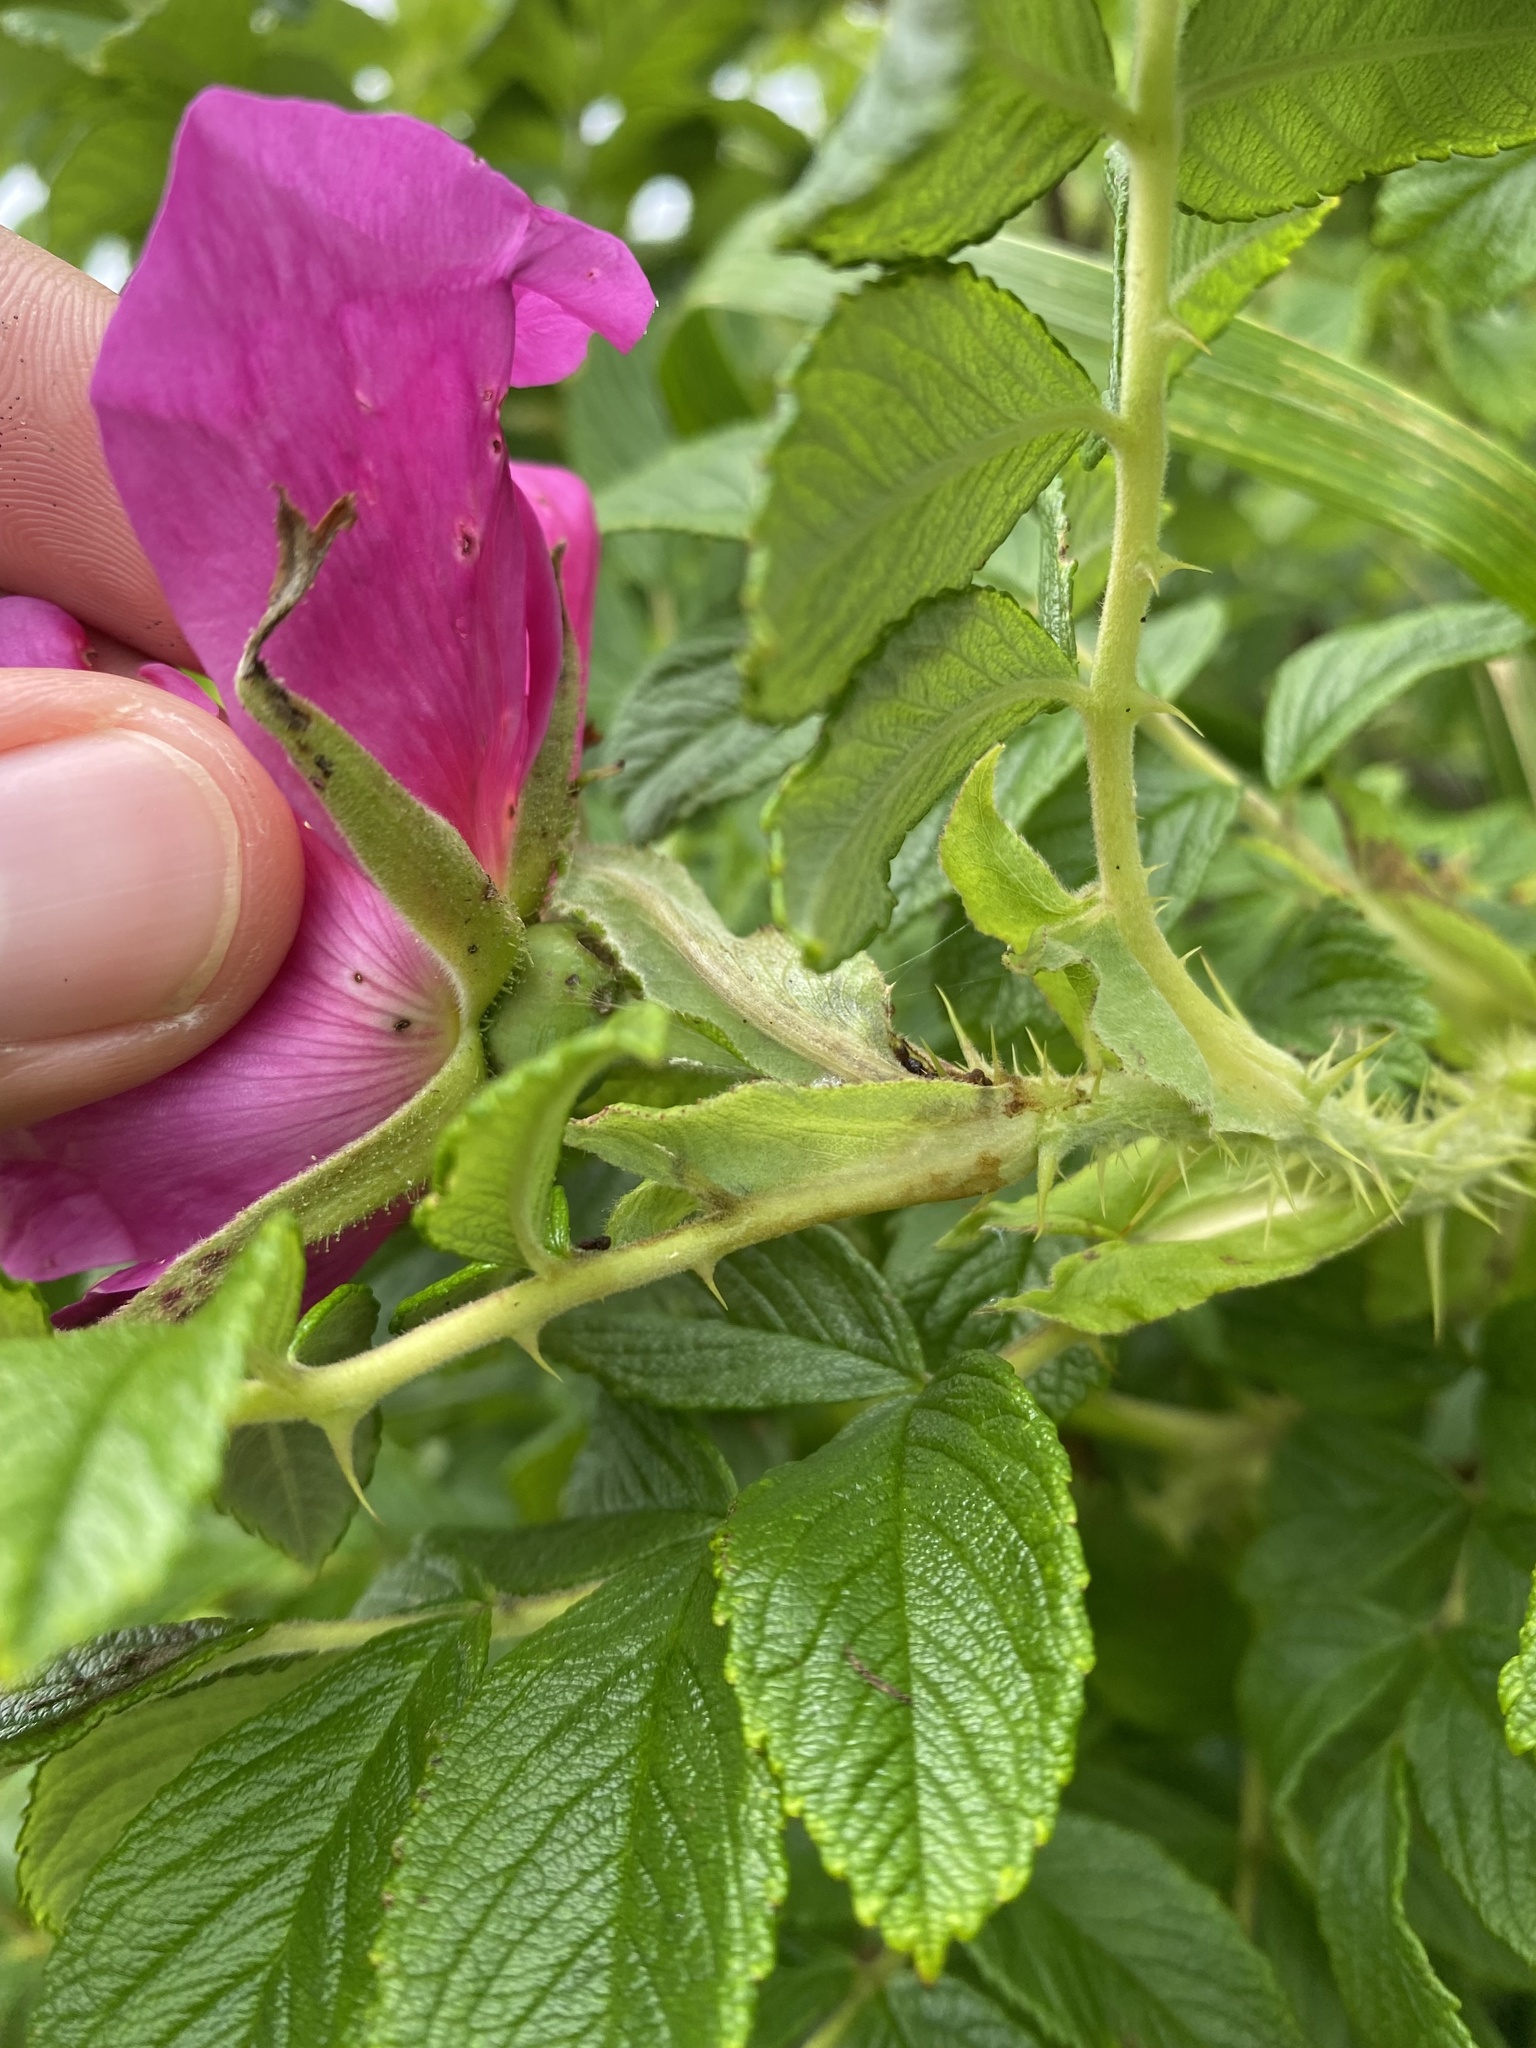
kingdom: Plantae
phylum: Tracheophyta
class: Magnoliopsida
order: Rosales
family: Rosaceae
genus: Rosa
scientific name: Rosa rugosa
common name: Japanese rose
